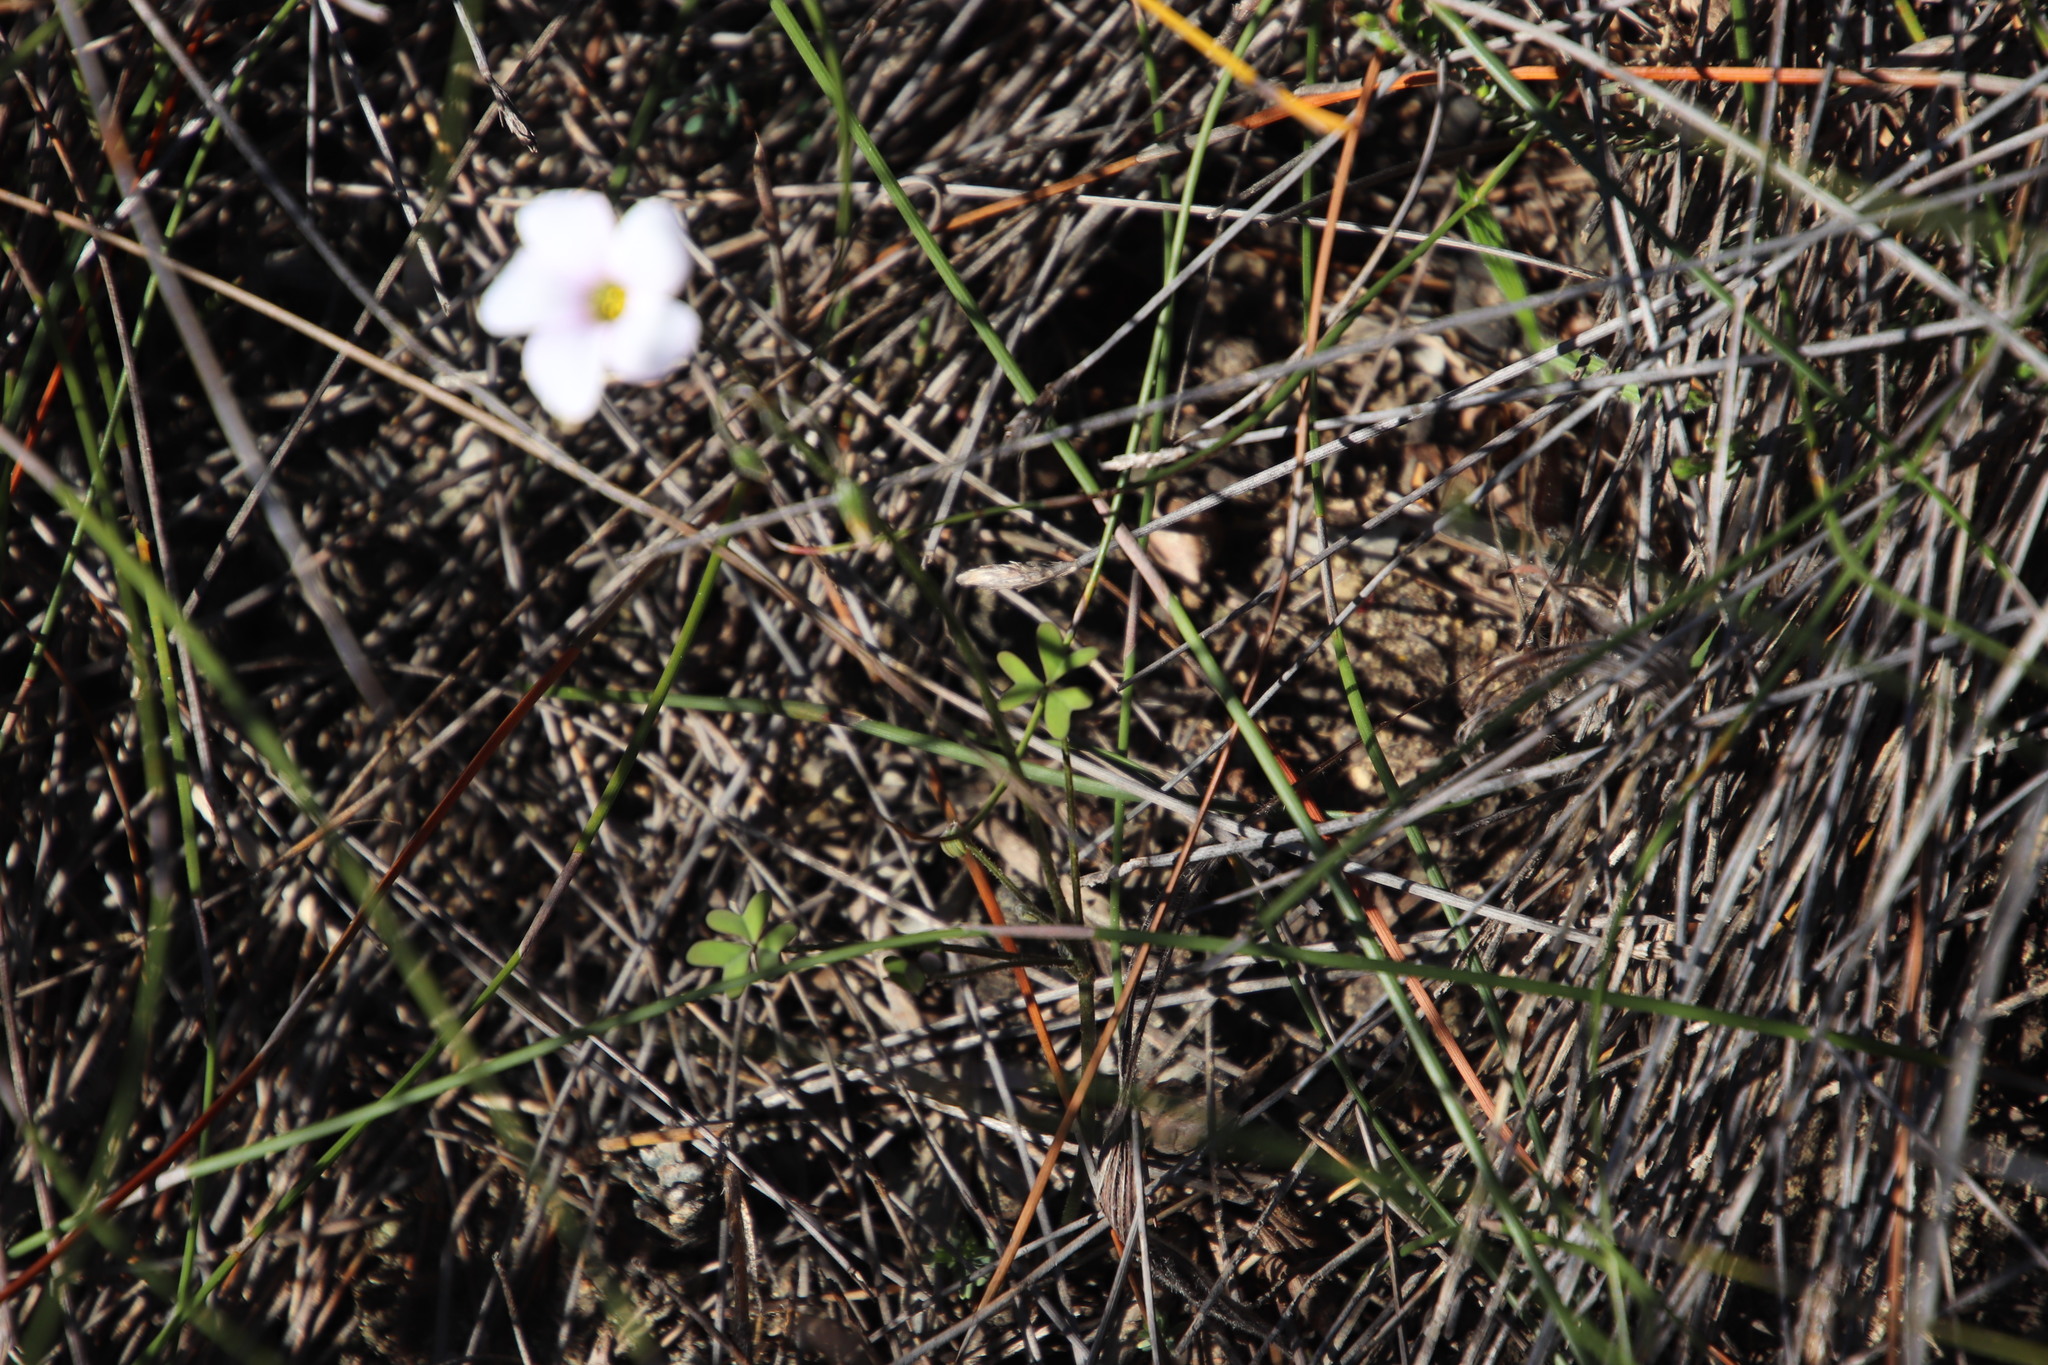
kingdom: Plantae
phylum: Tracheophyta
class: Magnoliopsida
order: Oxalidales
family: Oxalidaceae
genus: Oxalis
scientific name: Oxalis livida
